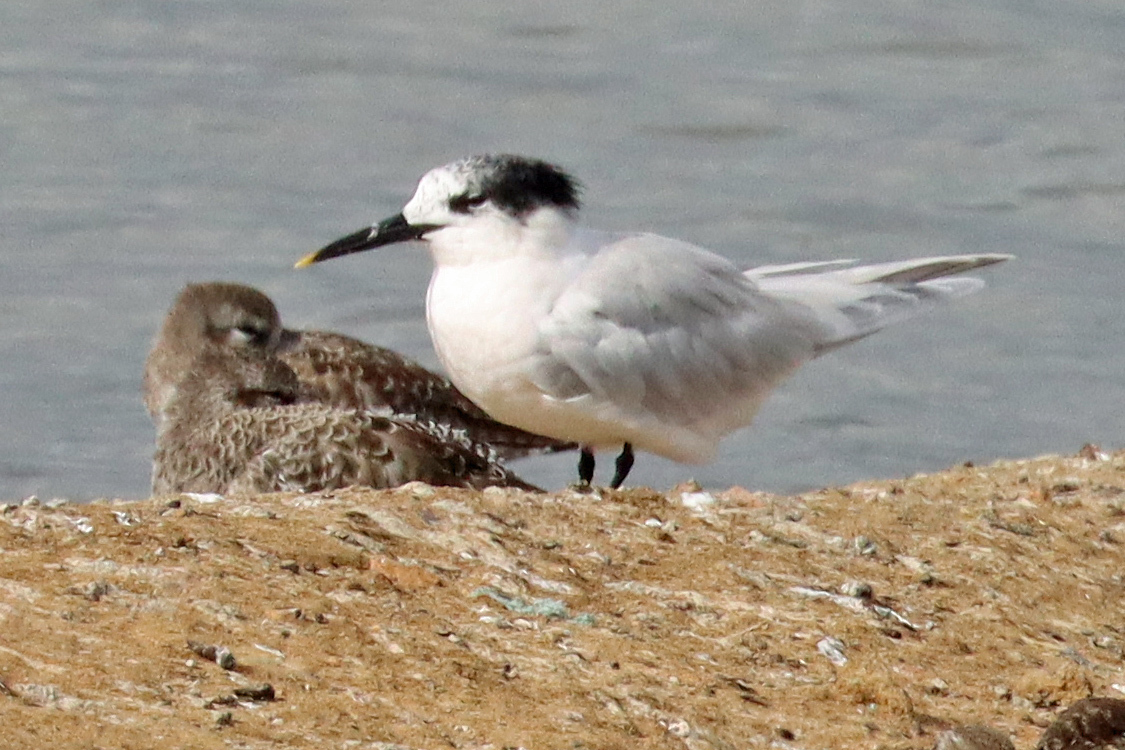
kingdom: Animalia
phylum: Chordata
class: Aves
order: Charadriiformes
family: Laridae
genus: Thalasseus
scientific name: Thalasseus sandvicensis
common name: Sandwich tern
